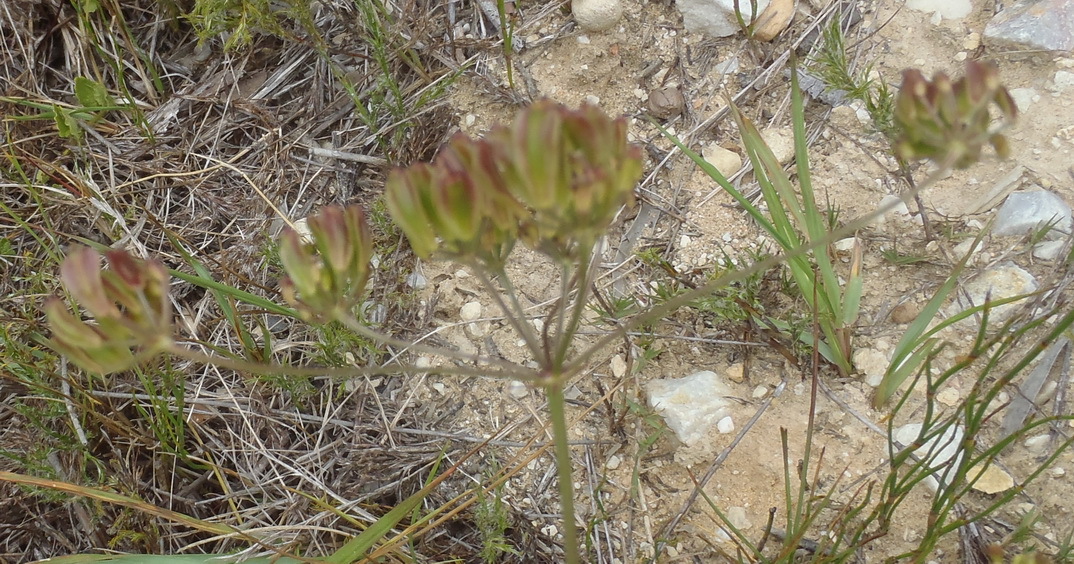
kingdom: Plantae
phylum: Tracheophyta
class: Magnoliopsida
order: Apiales
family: Apiaceae
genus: Nanobubon
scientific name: Nanobubon hypogaeum
